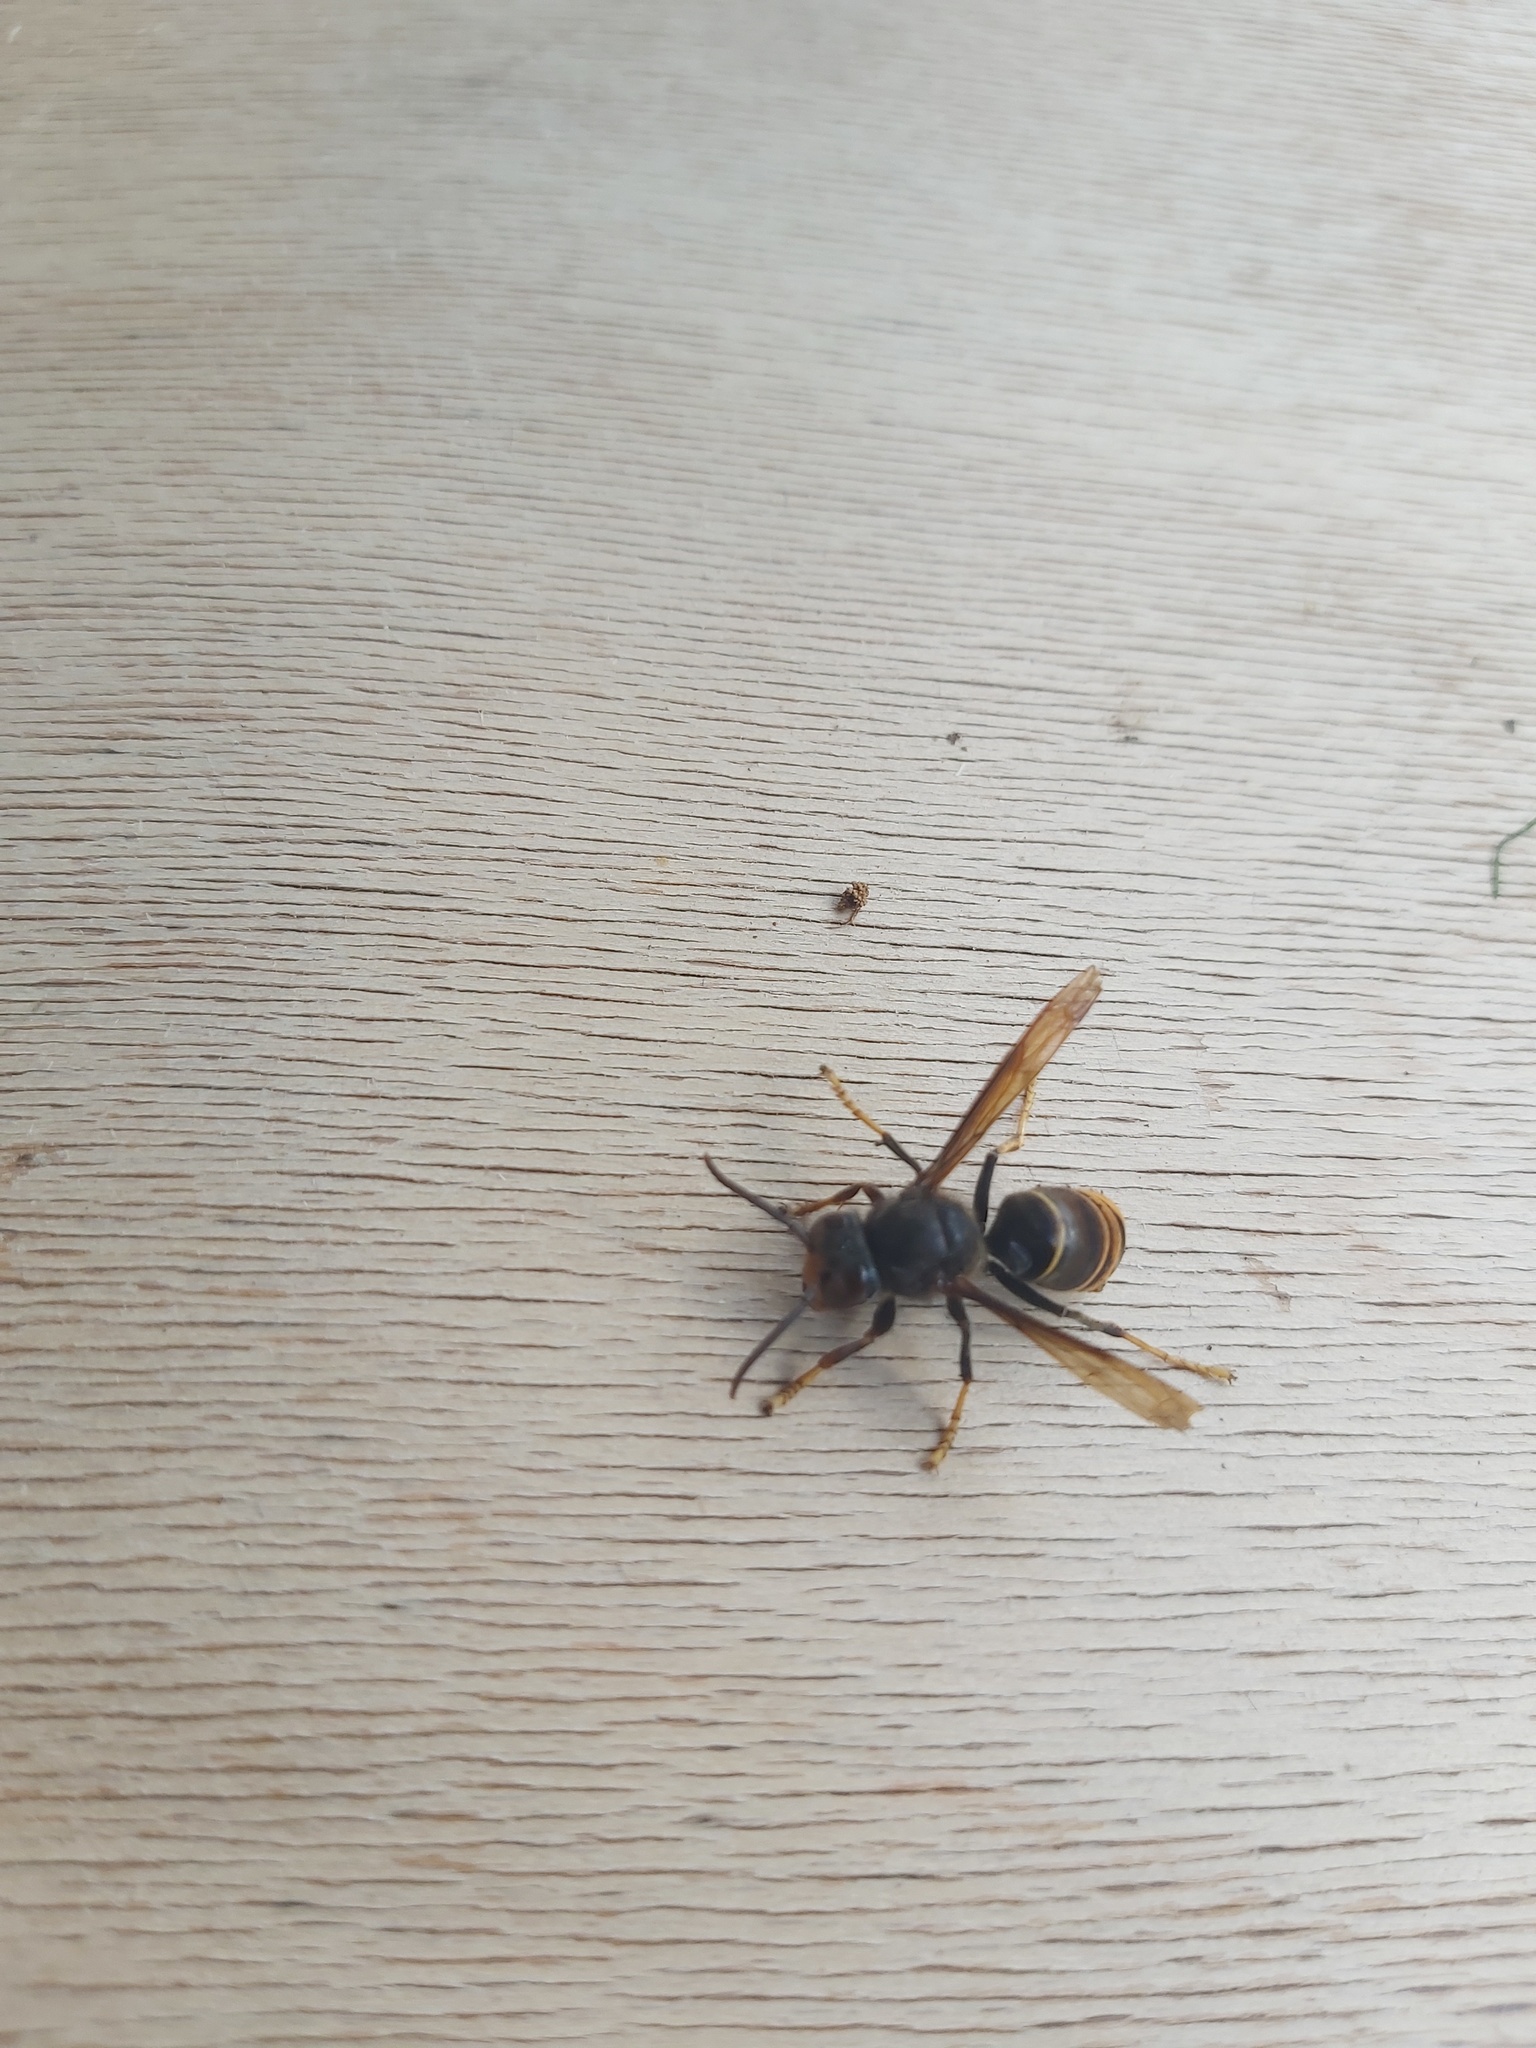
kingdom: Animalia
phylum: Arthropoda
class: Insecta
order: Hymenoptera
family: Vespidae
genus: Vespa
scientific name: Vespa velutina
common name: Asian hornet
